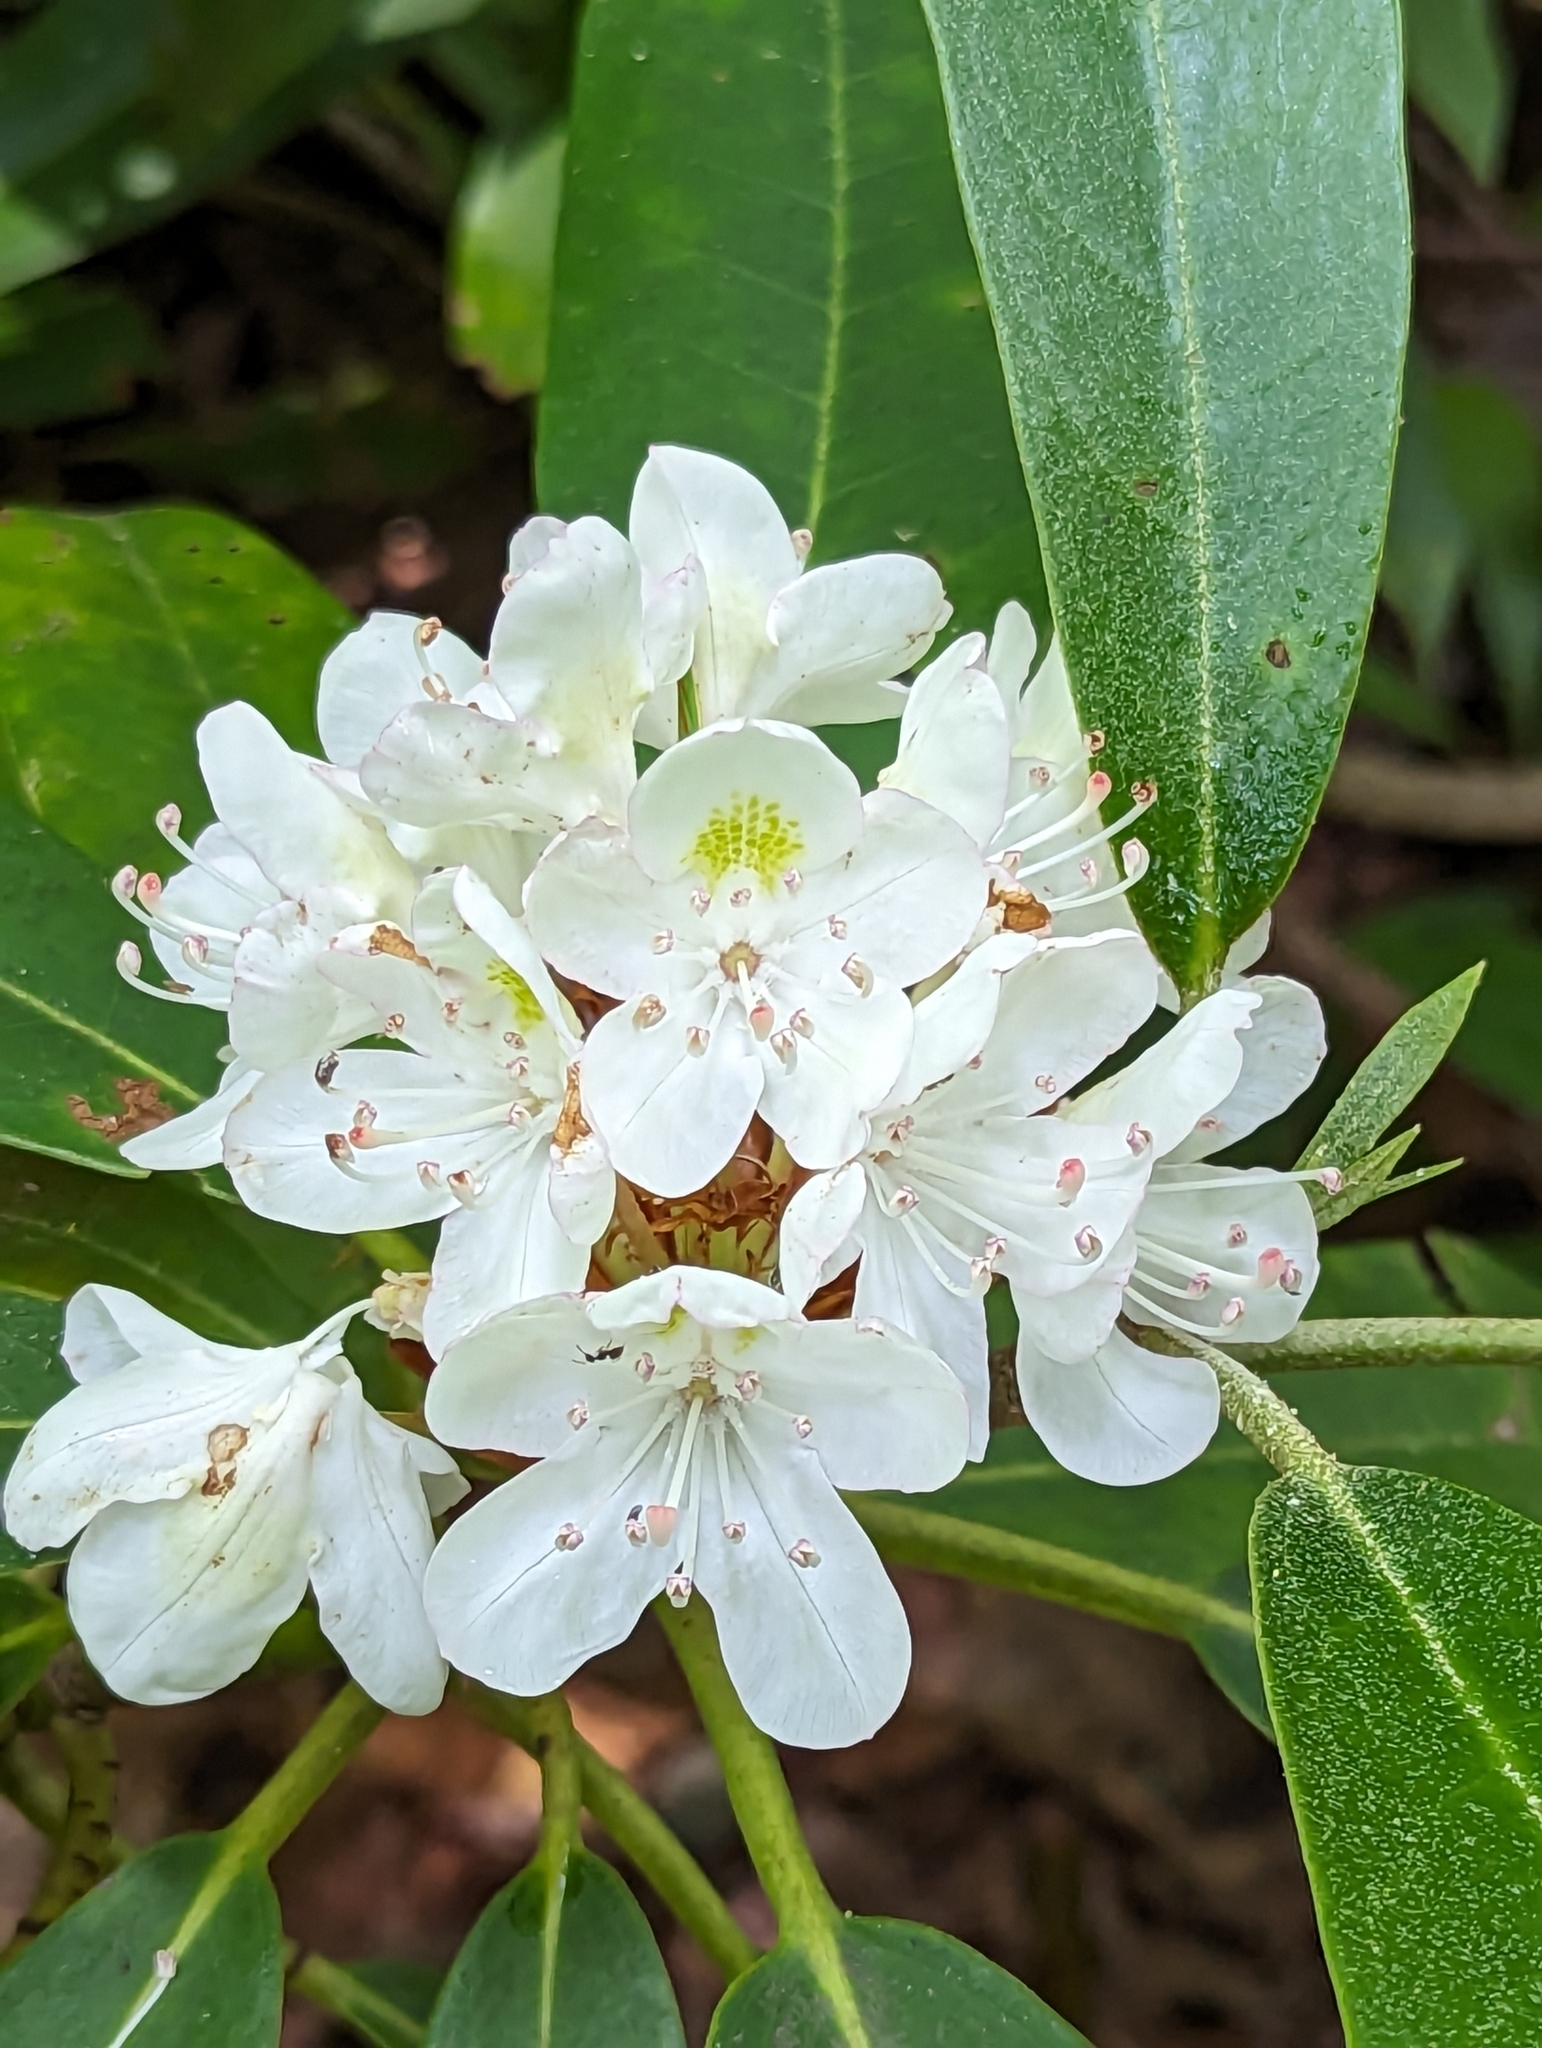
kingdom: Plantae
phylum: Tracheophyta
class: Magnoliopsida
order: Ericales
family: Ericaceae
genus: Rhododendron
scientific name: Rhododendron maximum
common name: Great rhododendron
